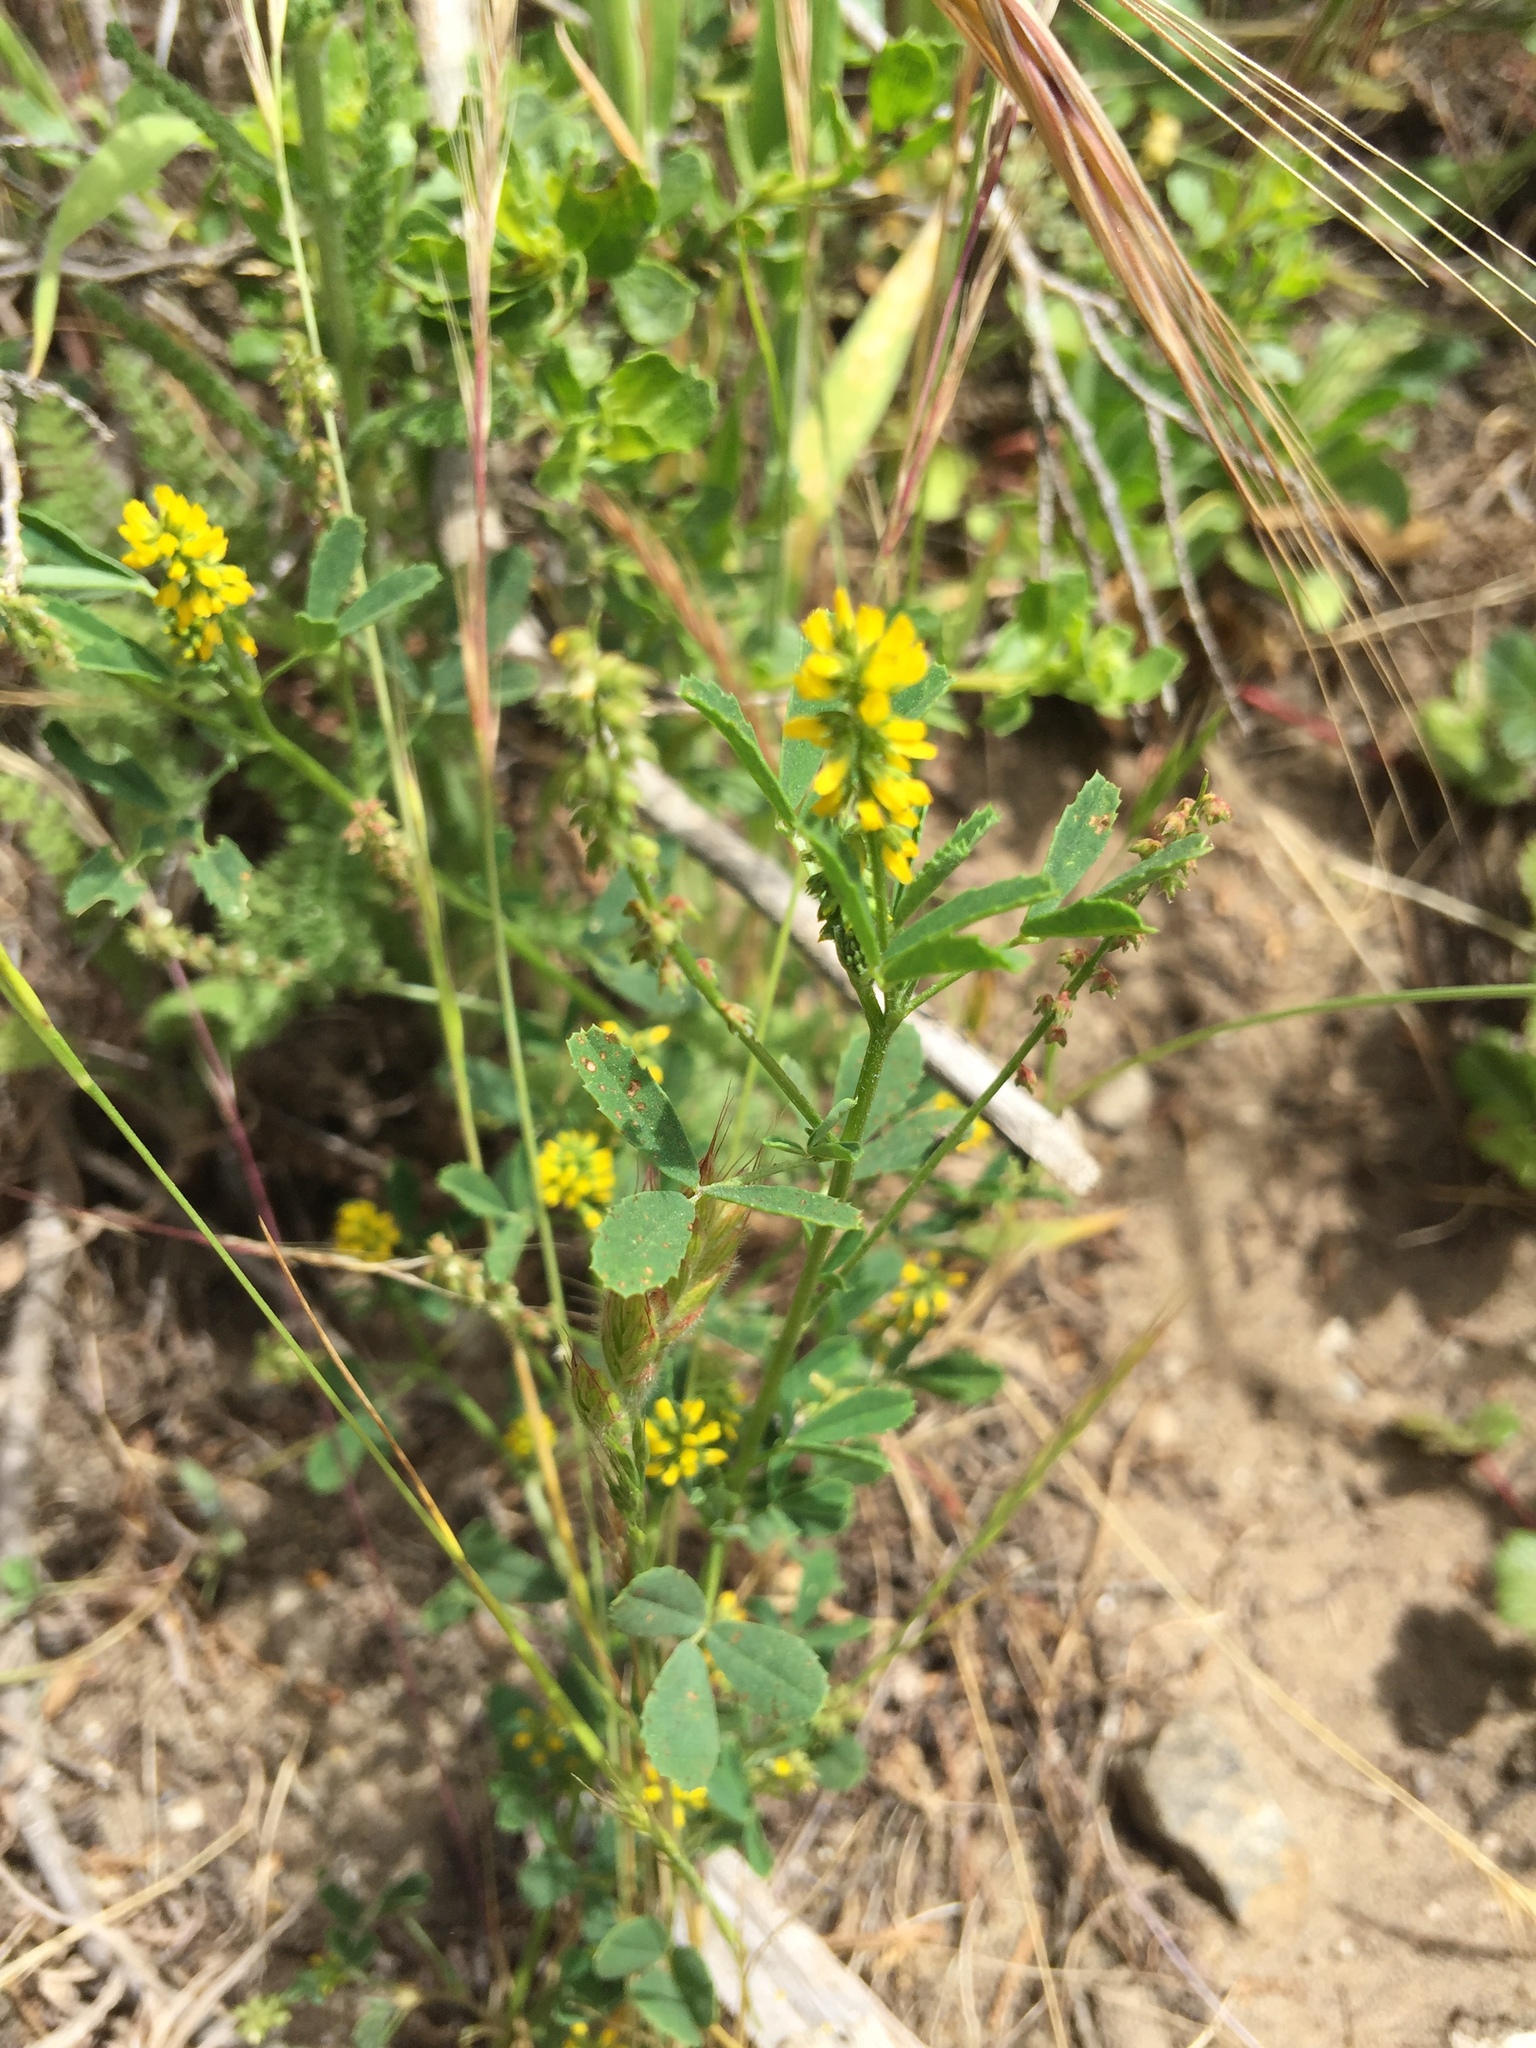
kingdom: Plantae
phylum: Tracheophyta
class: Magnoliopsida
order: Fabales
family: Fabaceae
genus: Melilotus
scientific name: Melilotus indicus
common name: Small melilot
